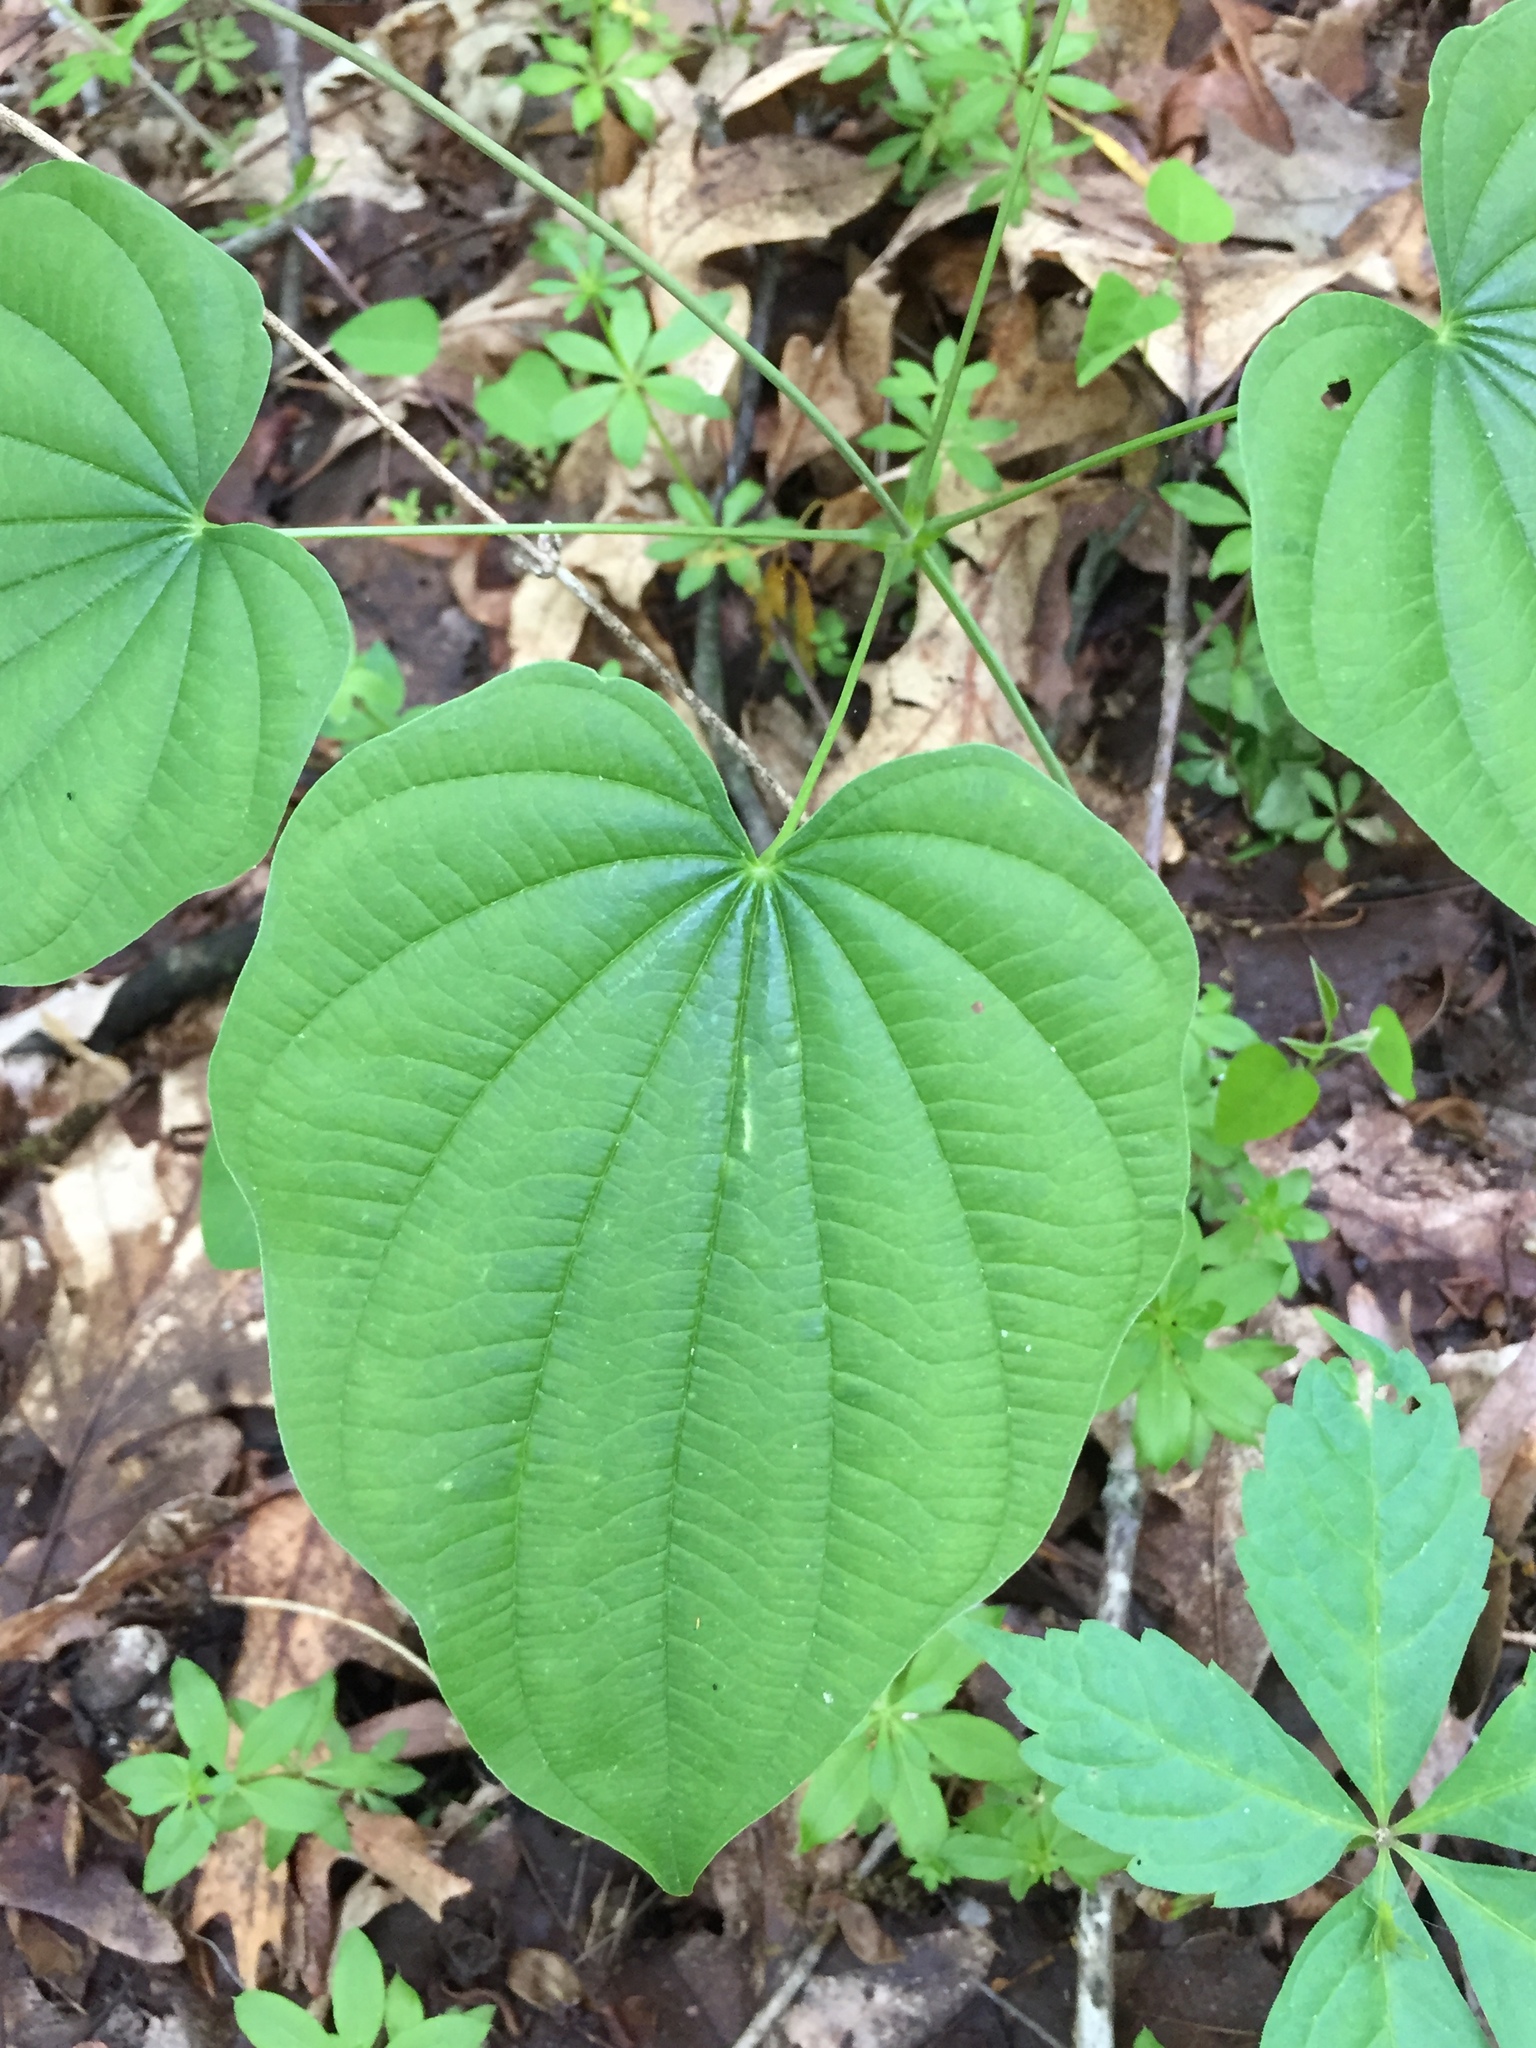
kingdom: Plantae
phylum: Tracheophyta
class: Liliopsida
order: Dioscoreales
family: Dioscoreaceae
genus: Dioscorea
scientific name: Dioscorea villosa
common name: Wild yam
